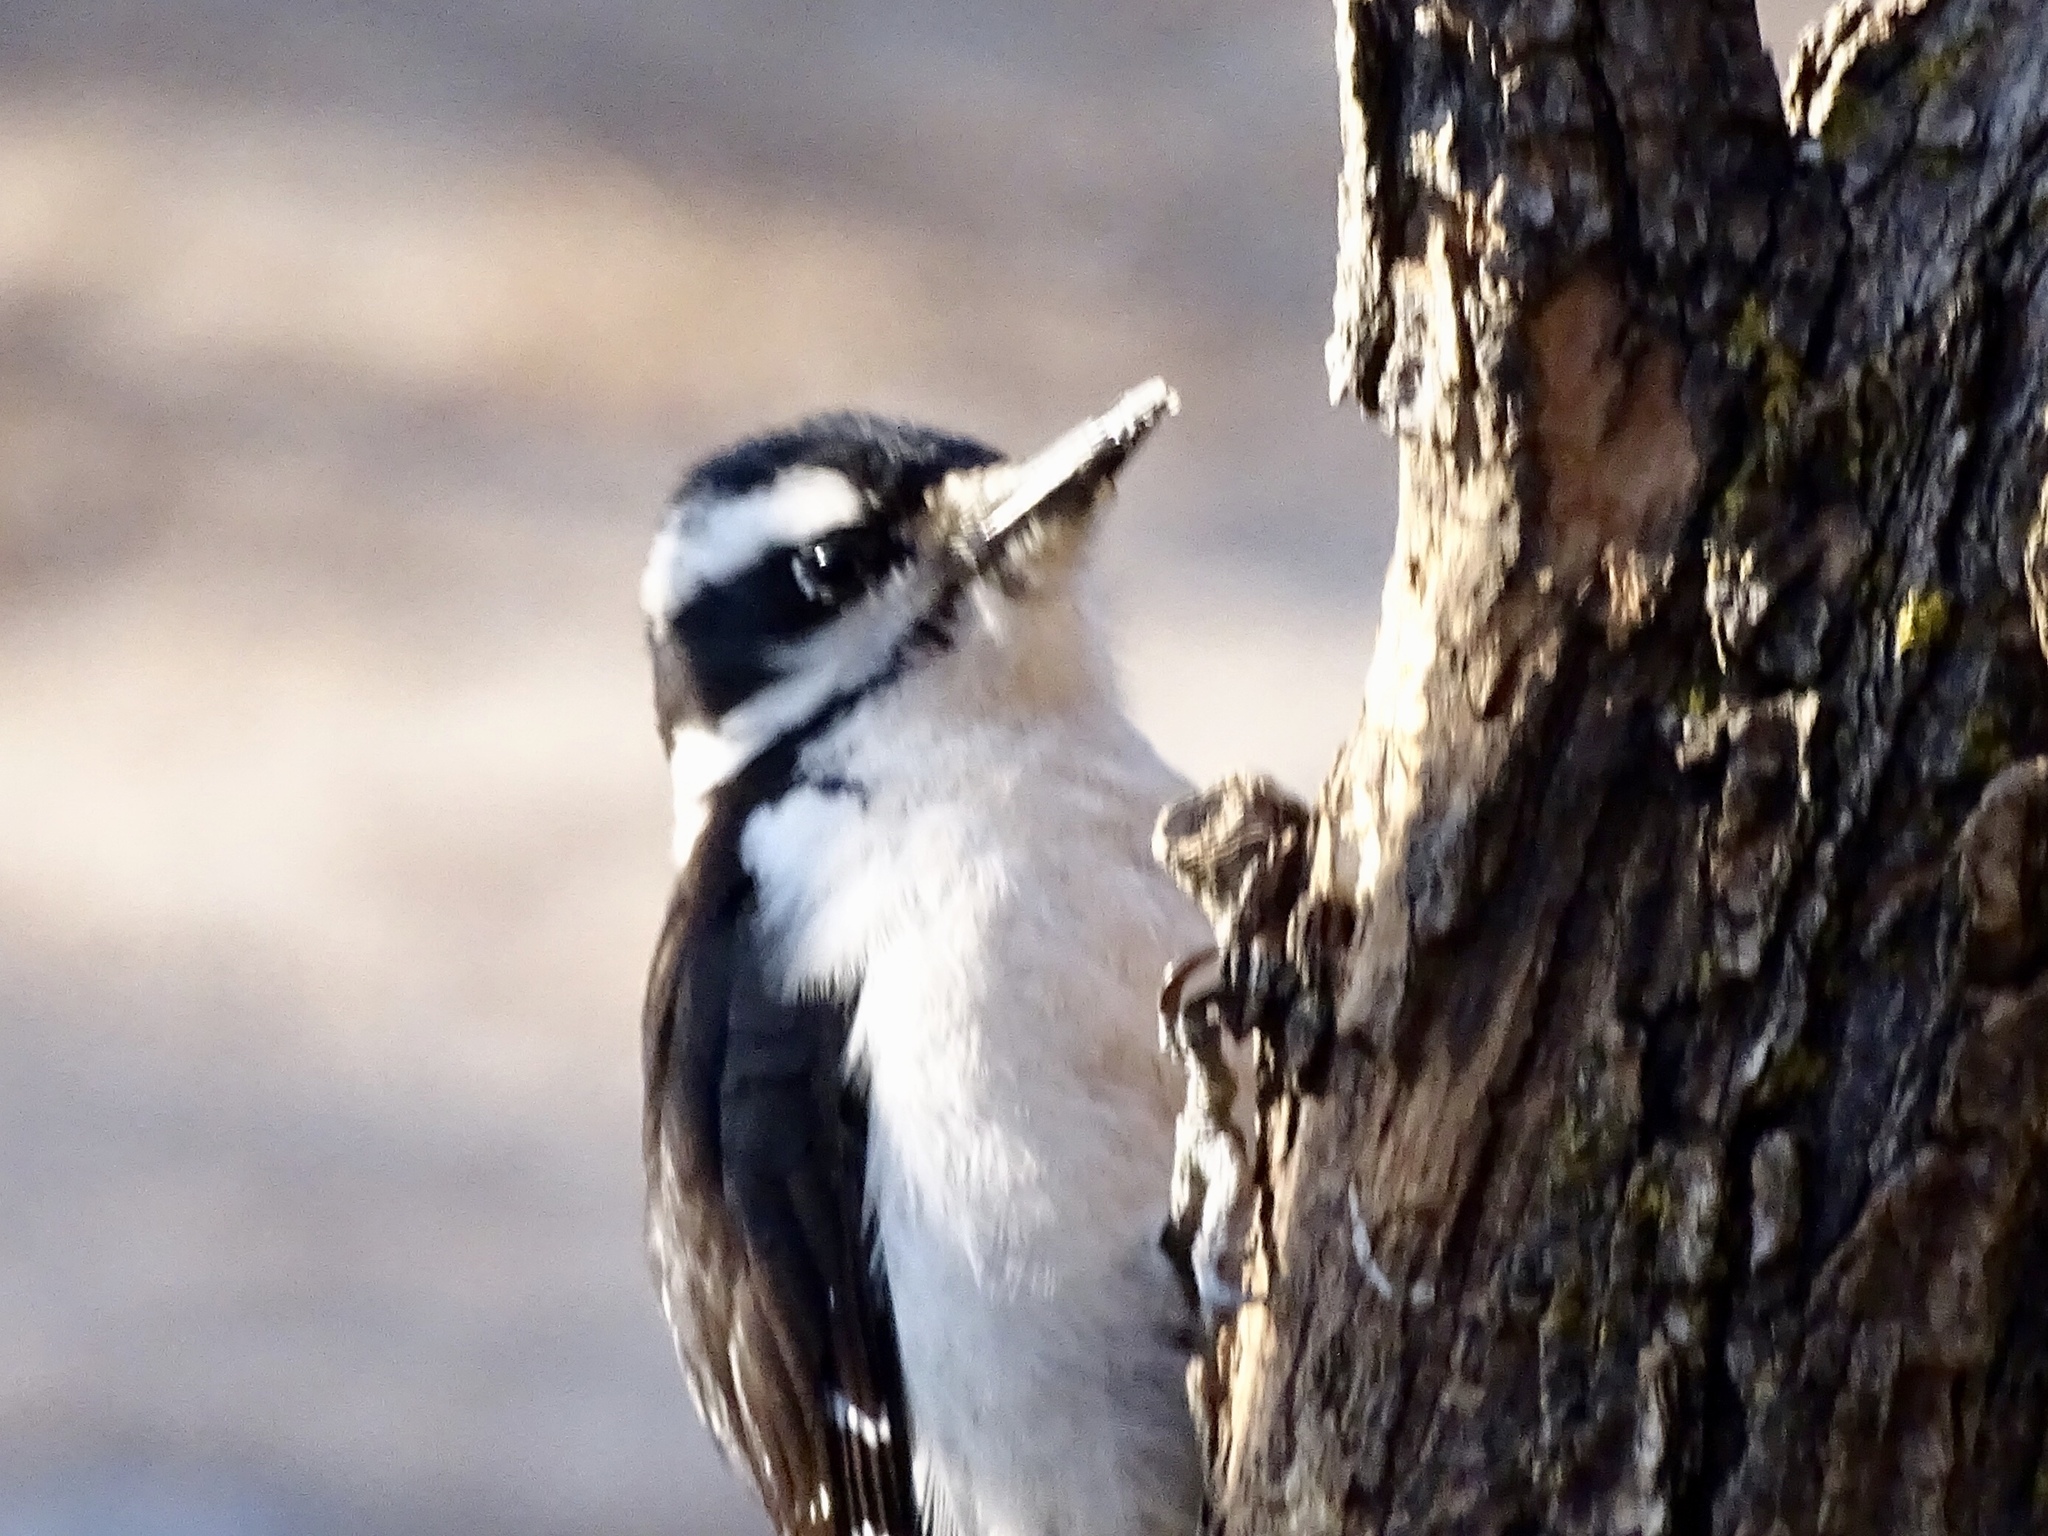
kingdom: Animalia
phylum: Chordata
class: Aves
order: Piciformes
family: Picidae
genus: Leuconotopicus
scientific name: Leuconotopicus villosus
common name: Hairy woodpecker
